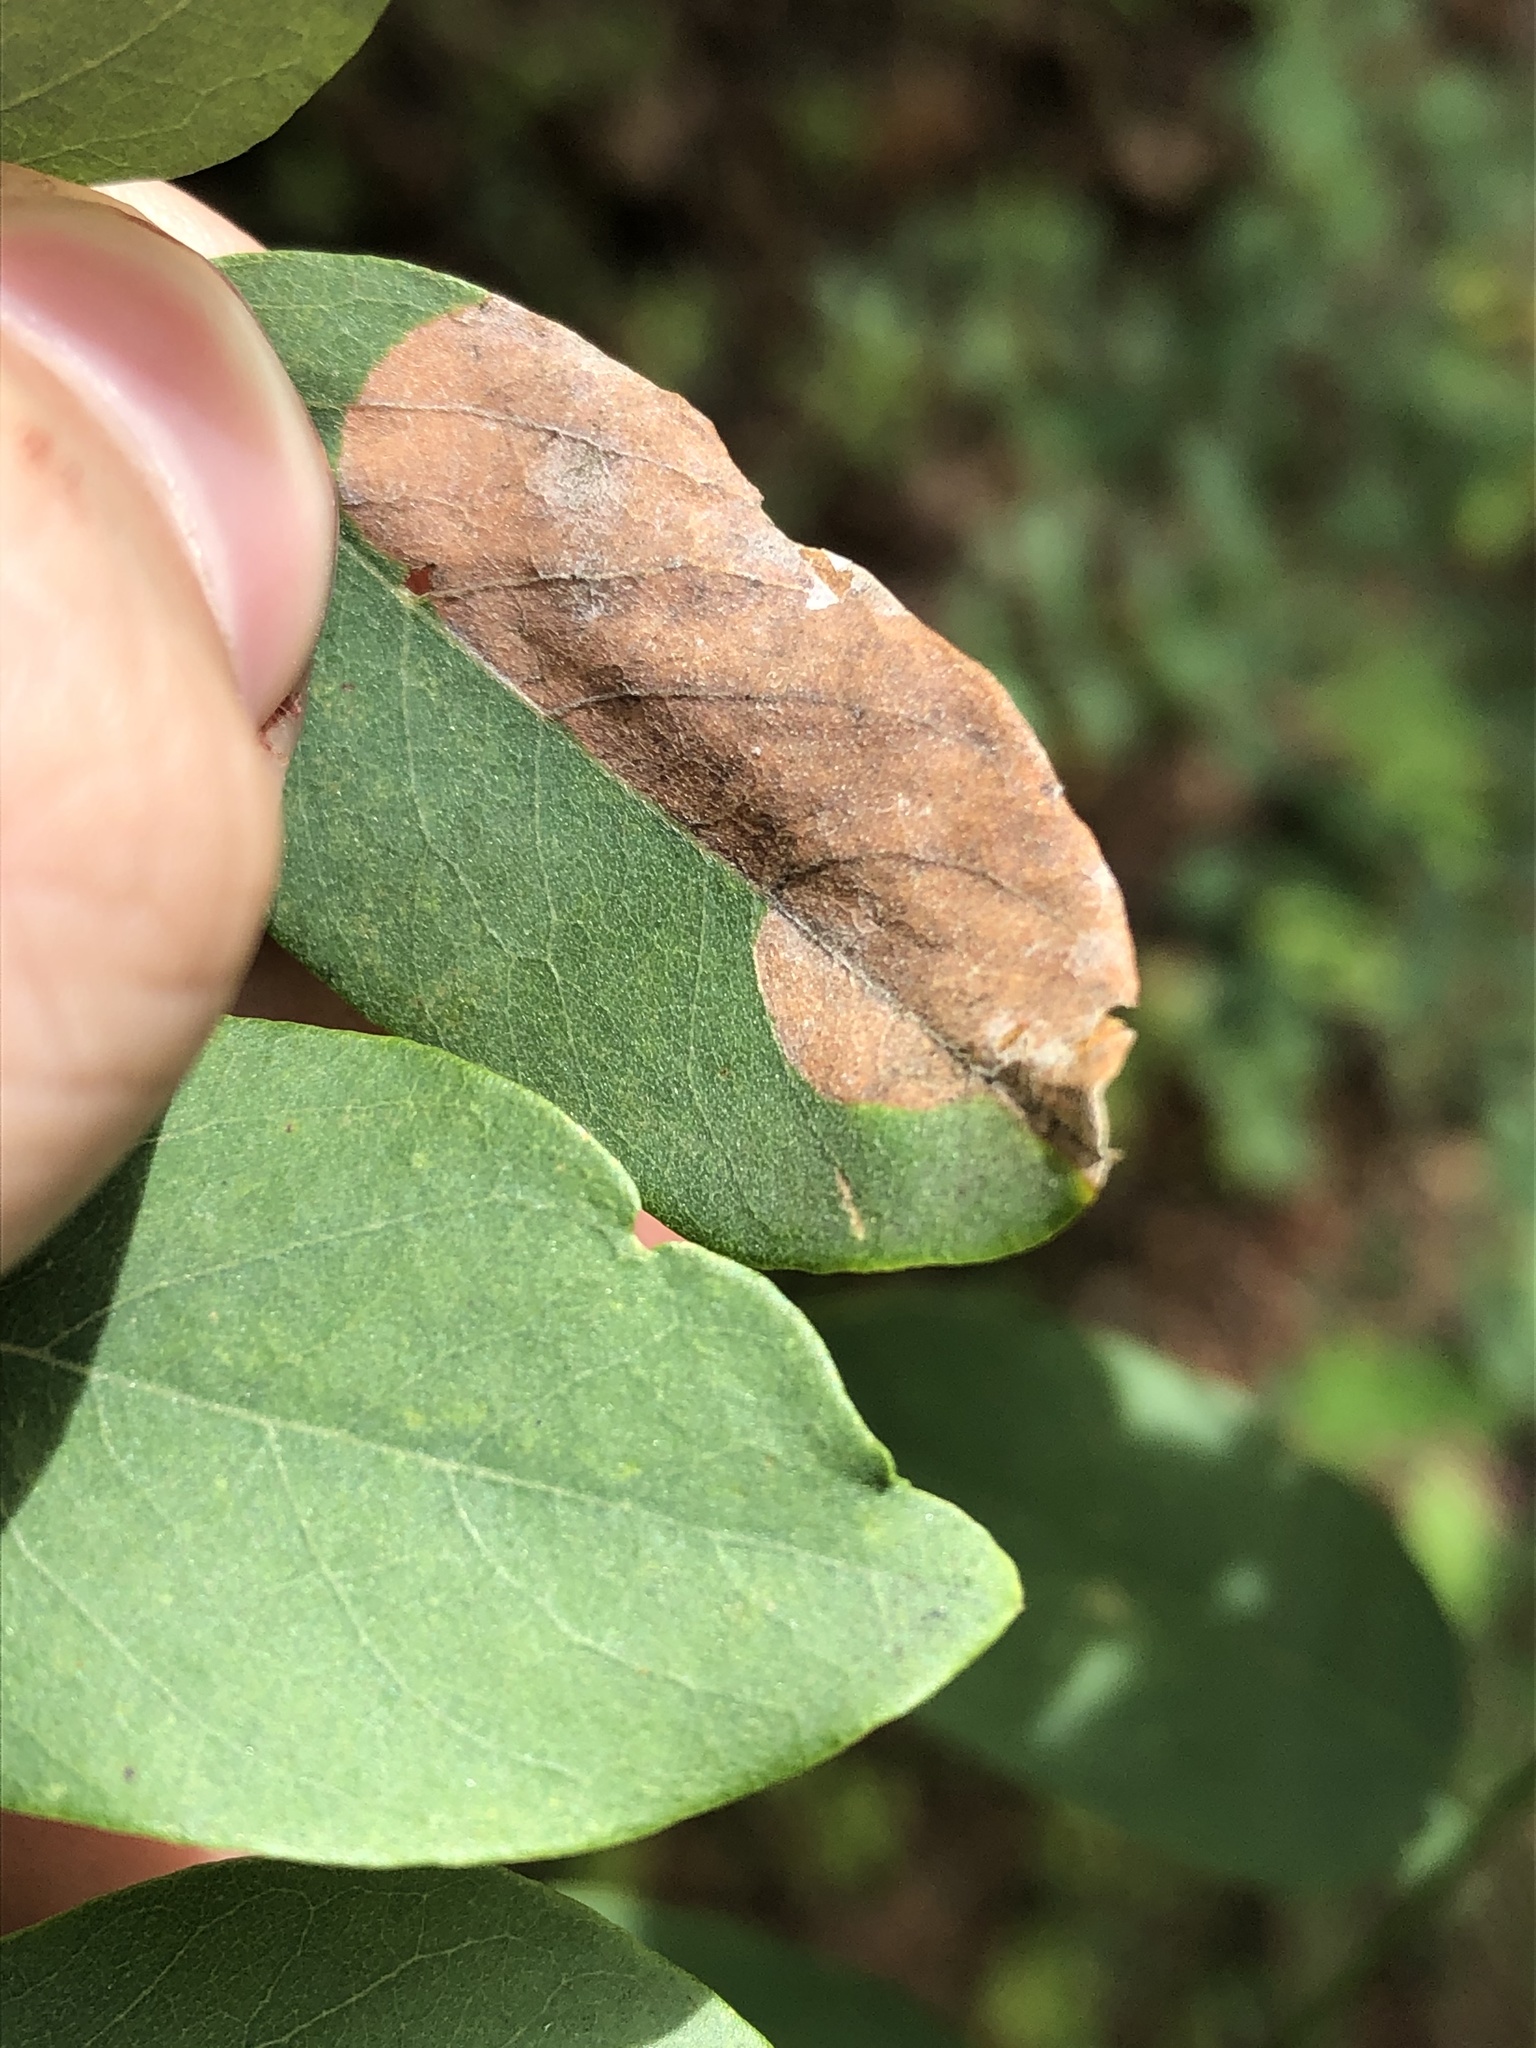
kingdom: Animalia
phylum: Arthropoda
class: Insecta
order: Lepidoptera
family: Gracillariidae
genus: Macrosaccus
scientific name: Macrosaccus neomexicanus
